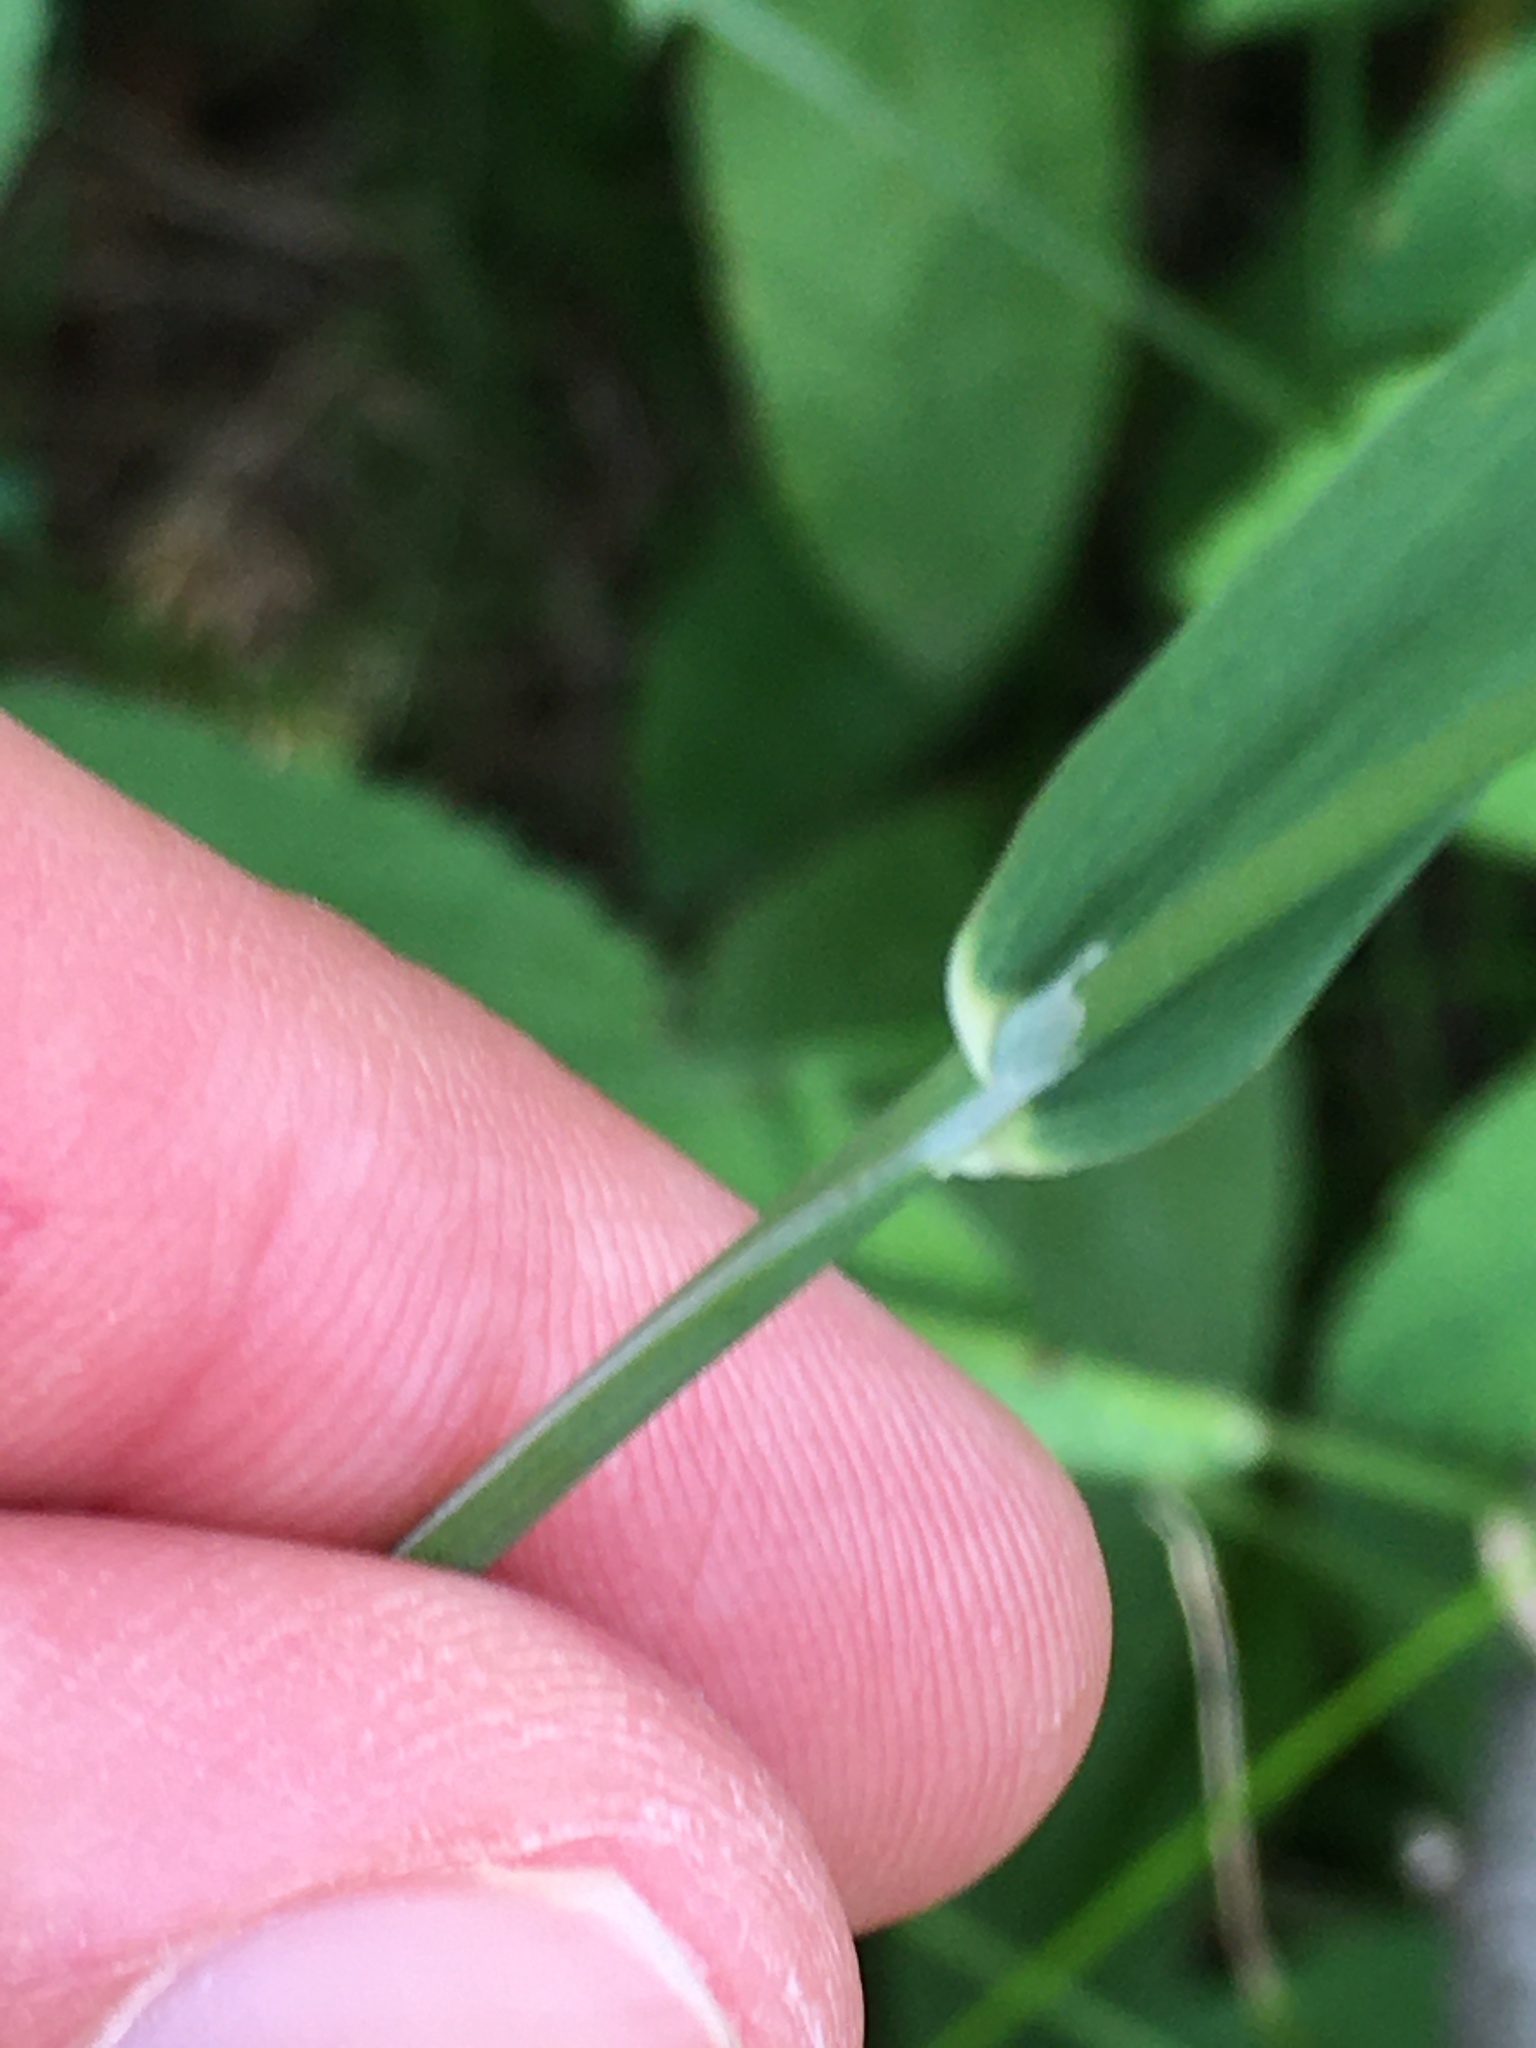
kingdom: Plantae
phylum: Tracheophyta
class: Liliopsida
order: Poales
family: Poaceae
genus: Phleum
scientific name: Phleum pratense
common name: Timothy grass
